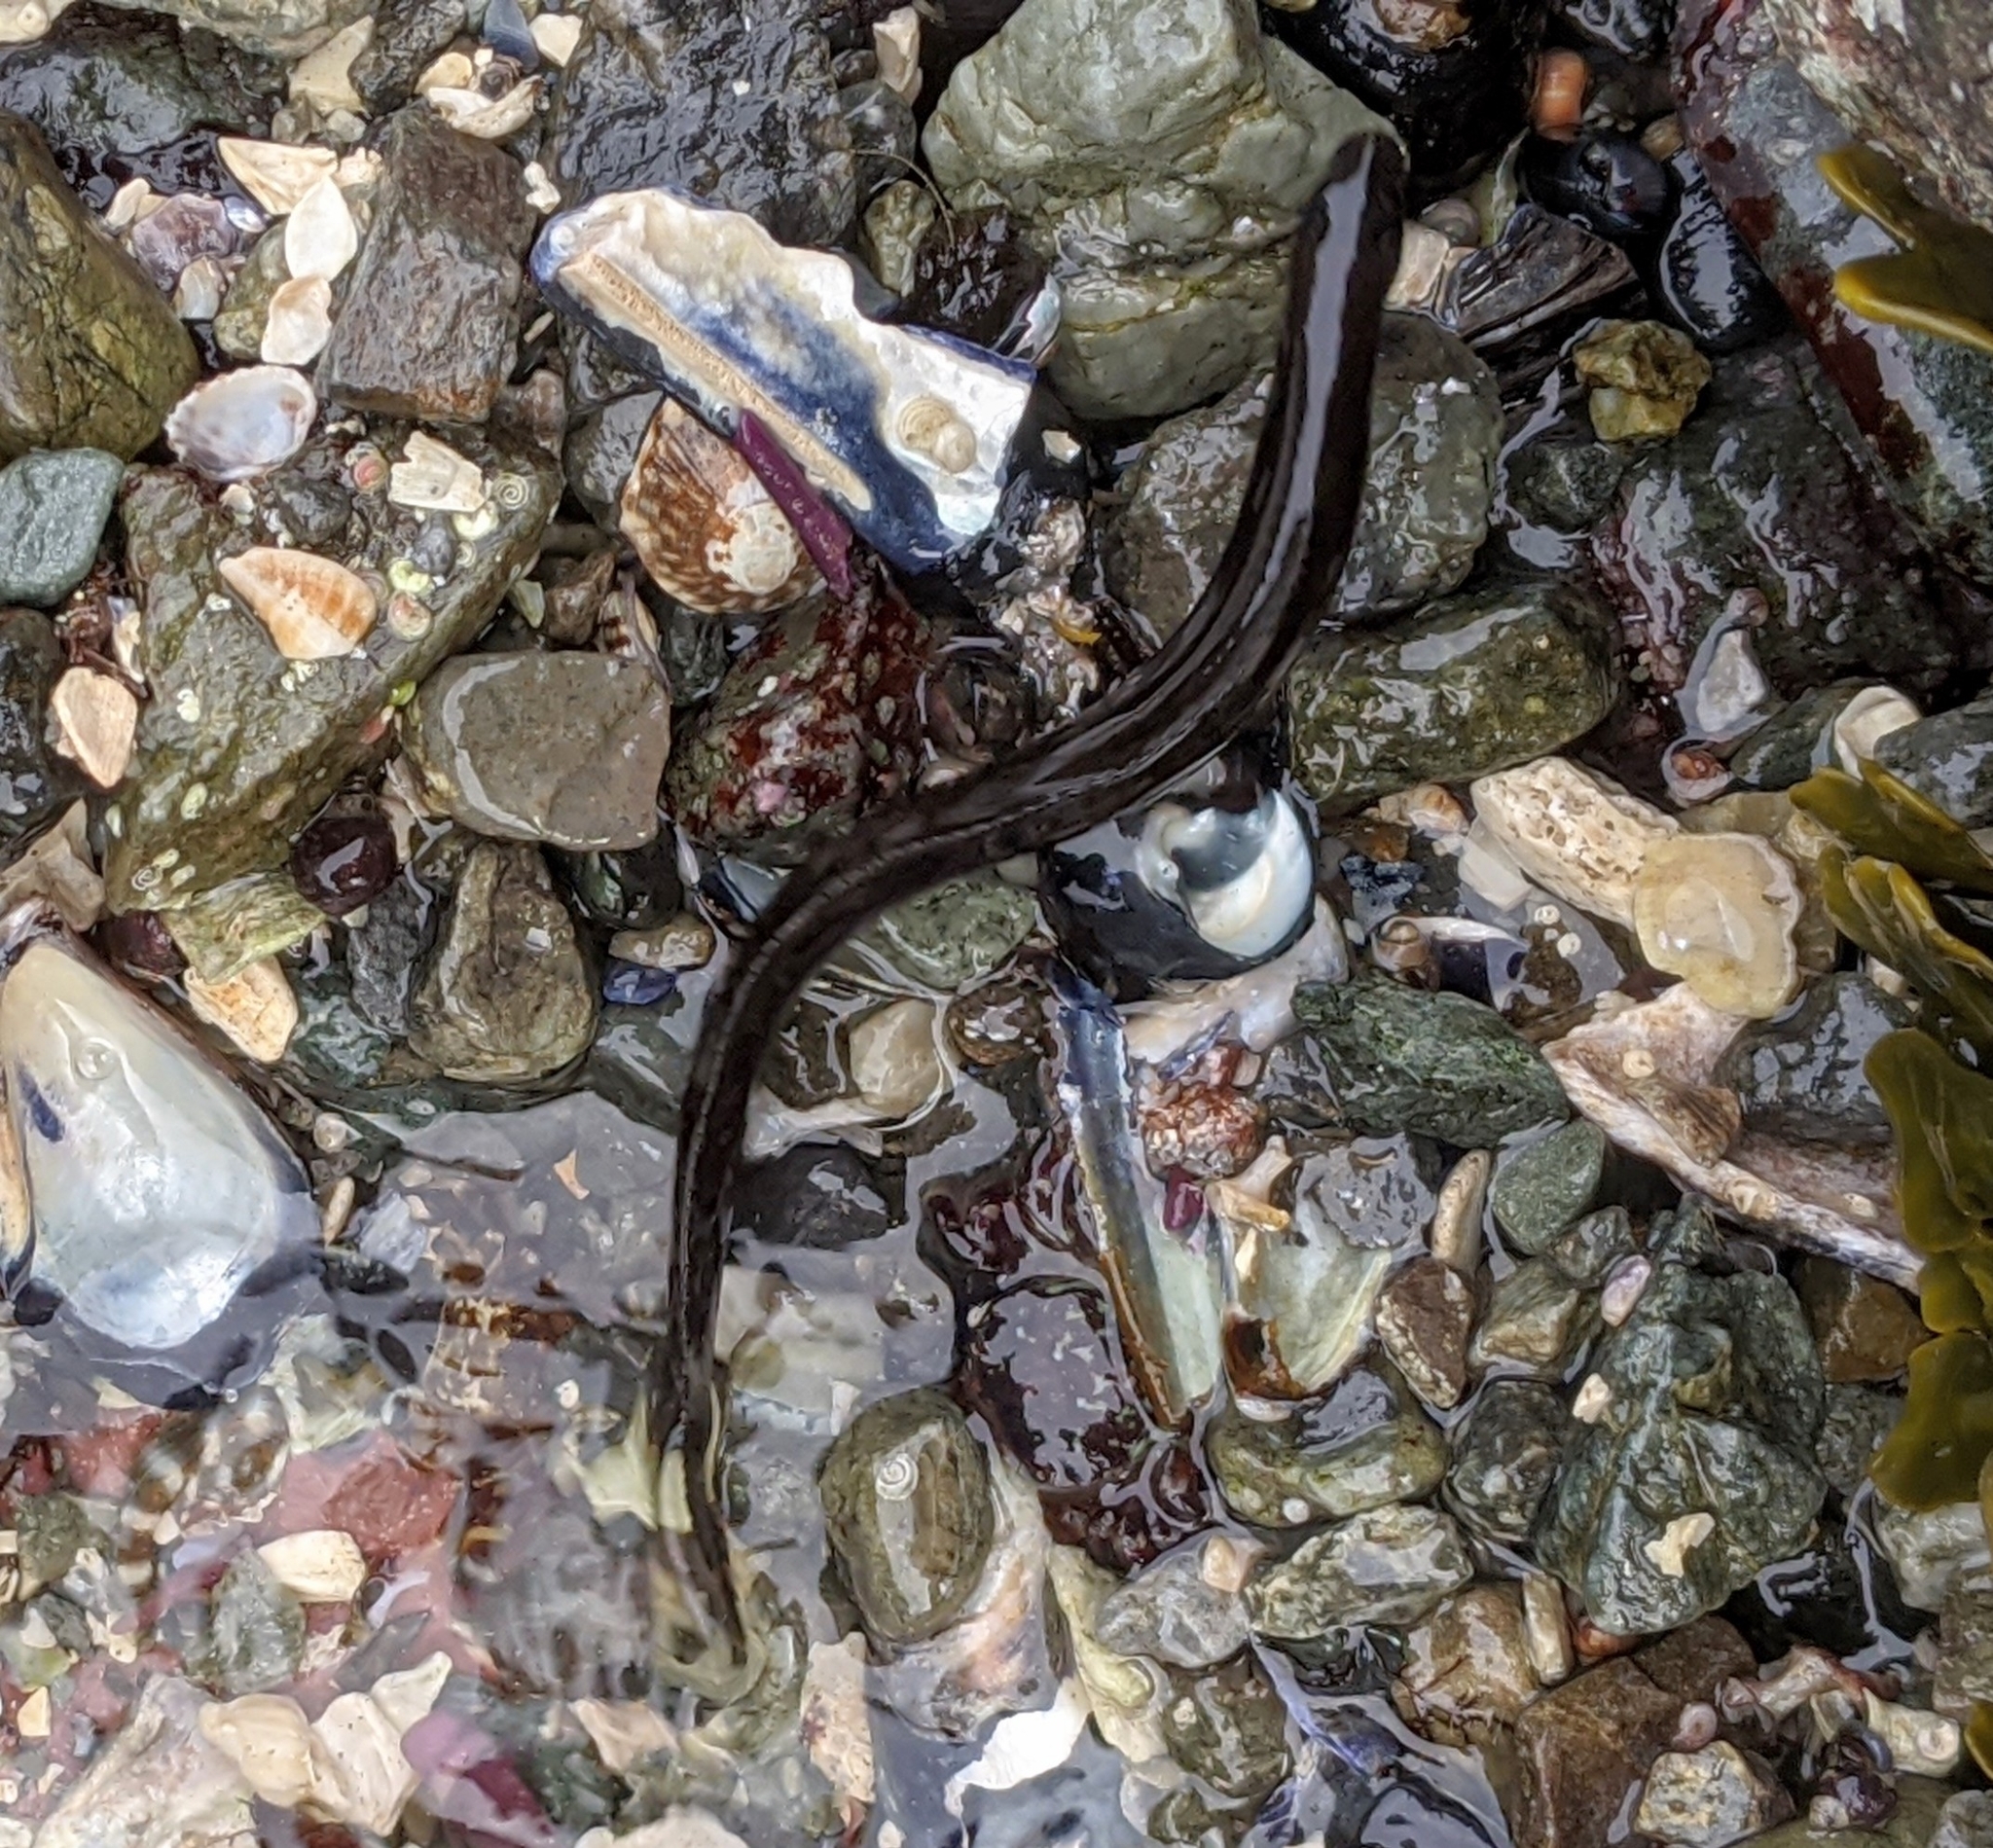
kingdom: Animalia
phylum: Chordata
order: Perciformes
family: Stichaeidae
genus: Xiphister
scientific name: Xiphister atropurpureus
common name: Black prickleback
